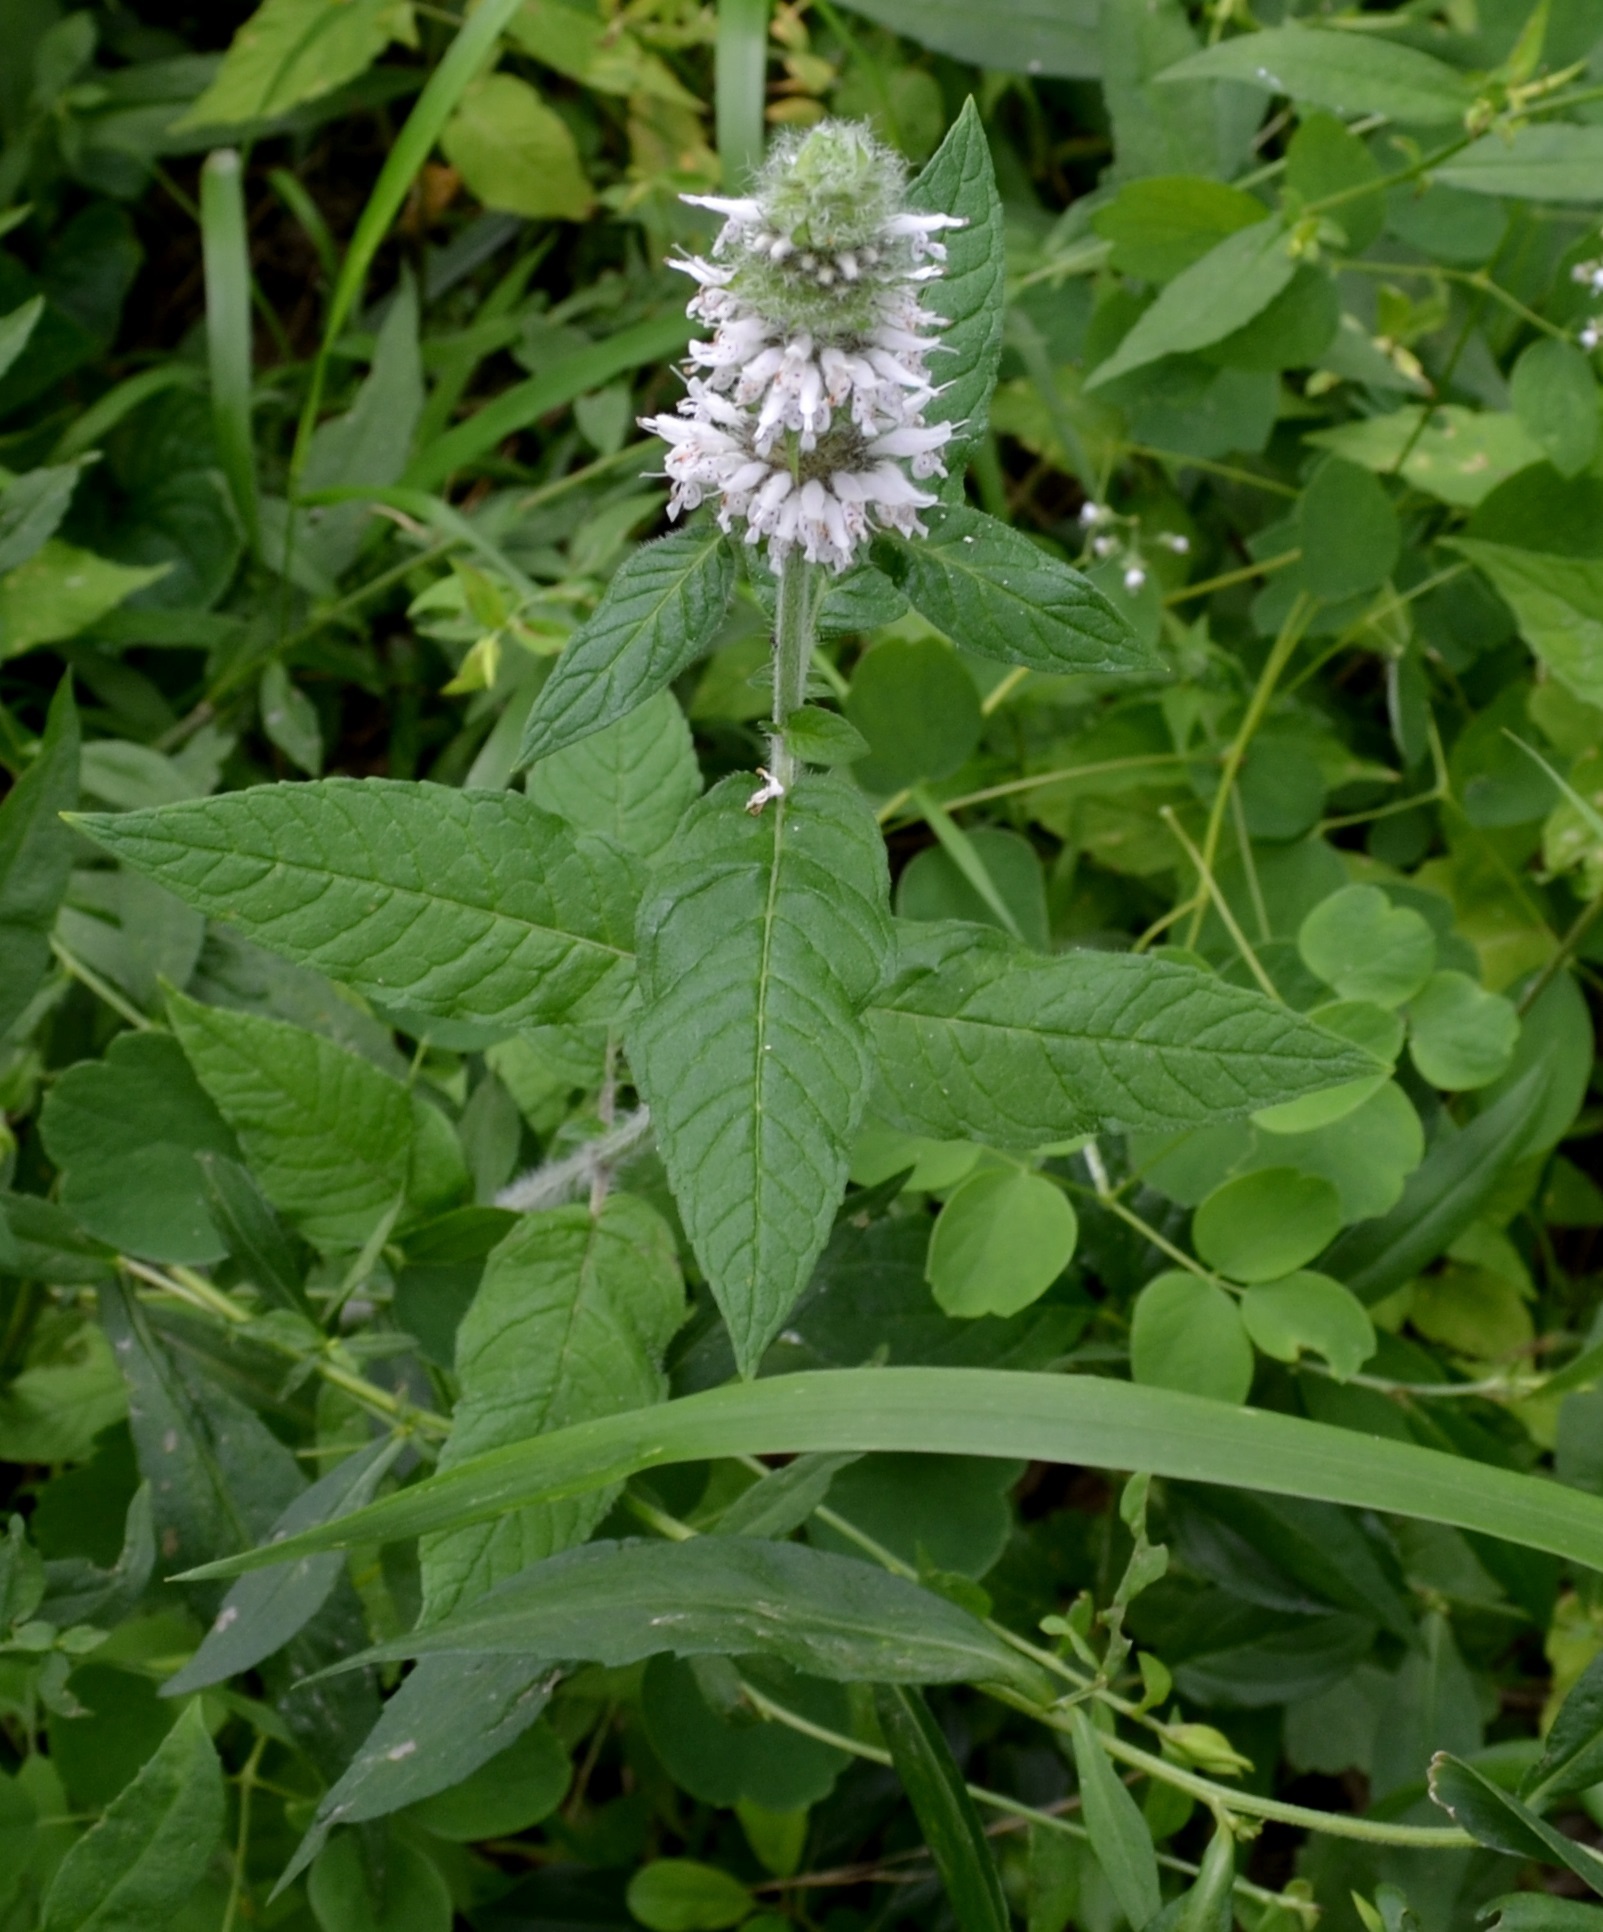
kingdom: Plantae
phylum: Tracheophyta
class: Magnoliopsida
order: Lamiales
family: Lamiaceae
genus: Blephilia
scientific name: Blephilia hirsuta
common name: Hairy blephilia
